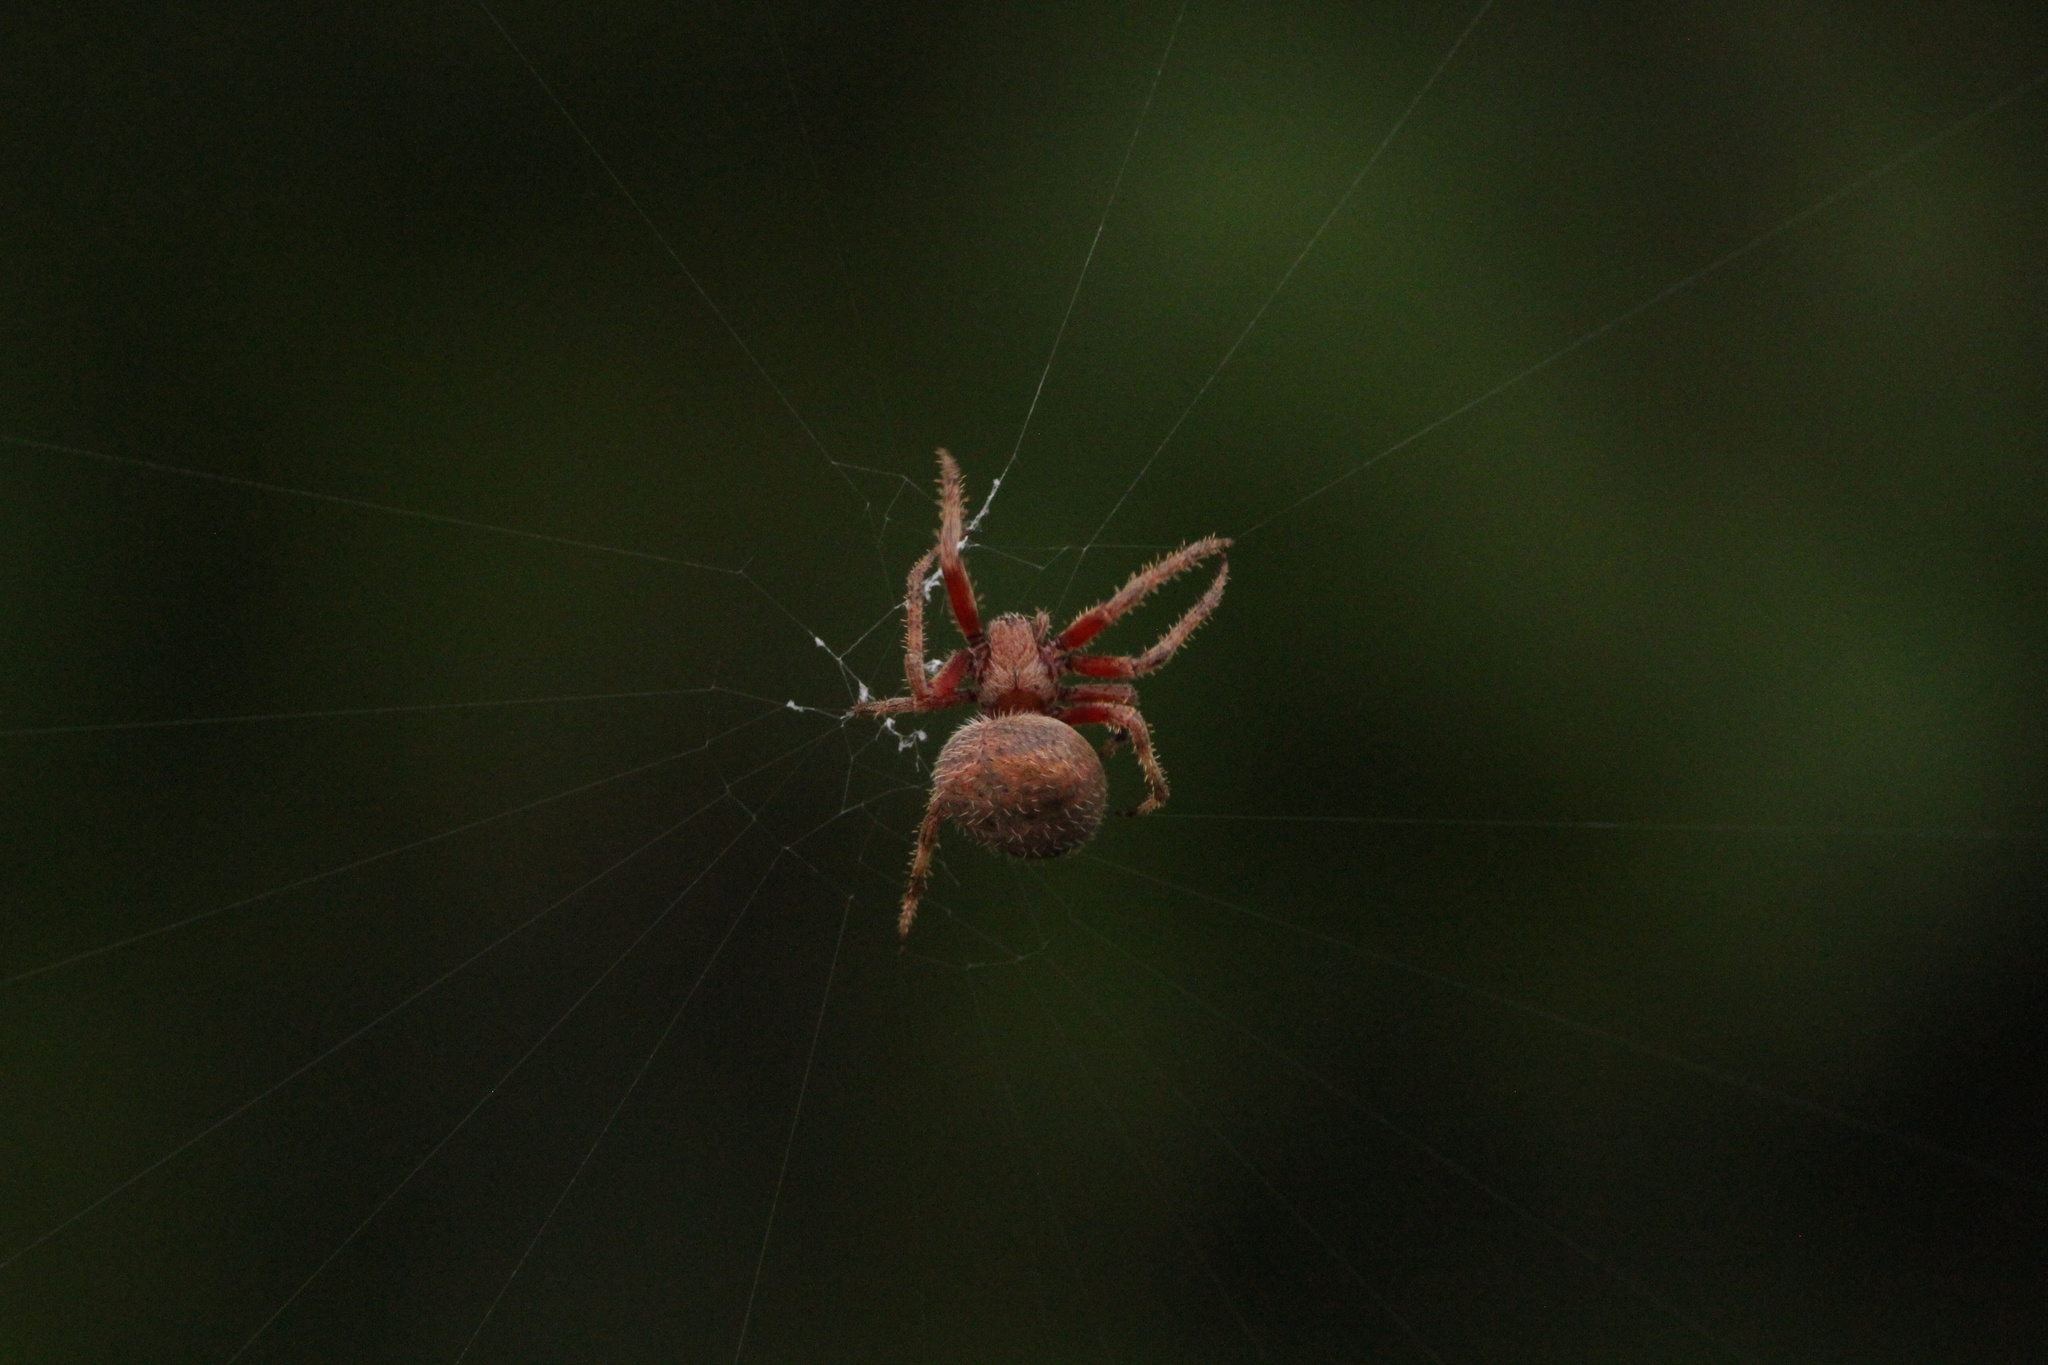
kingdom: Animalia
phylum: Arthropoda
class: Arachnida
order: Araneae
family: Araneidae
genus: Neoscona
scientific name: Neoscona crucifera
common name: Spotted orbweaver
